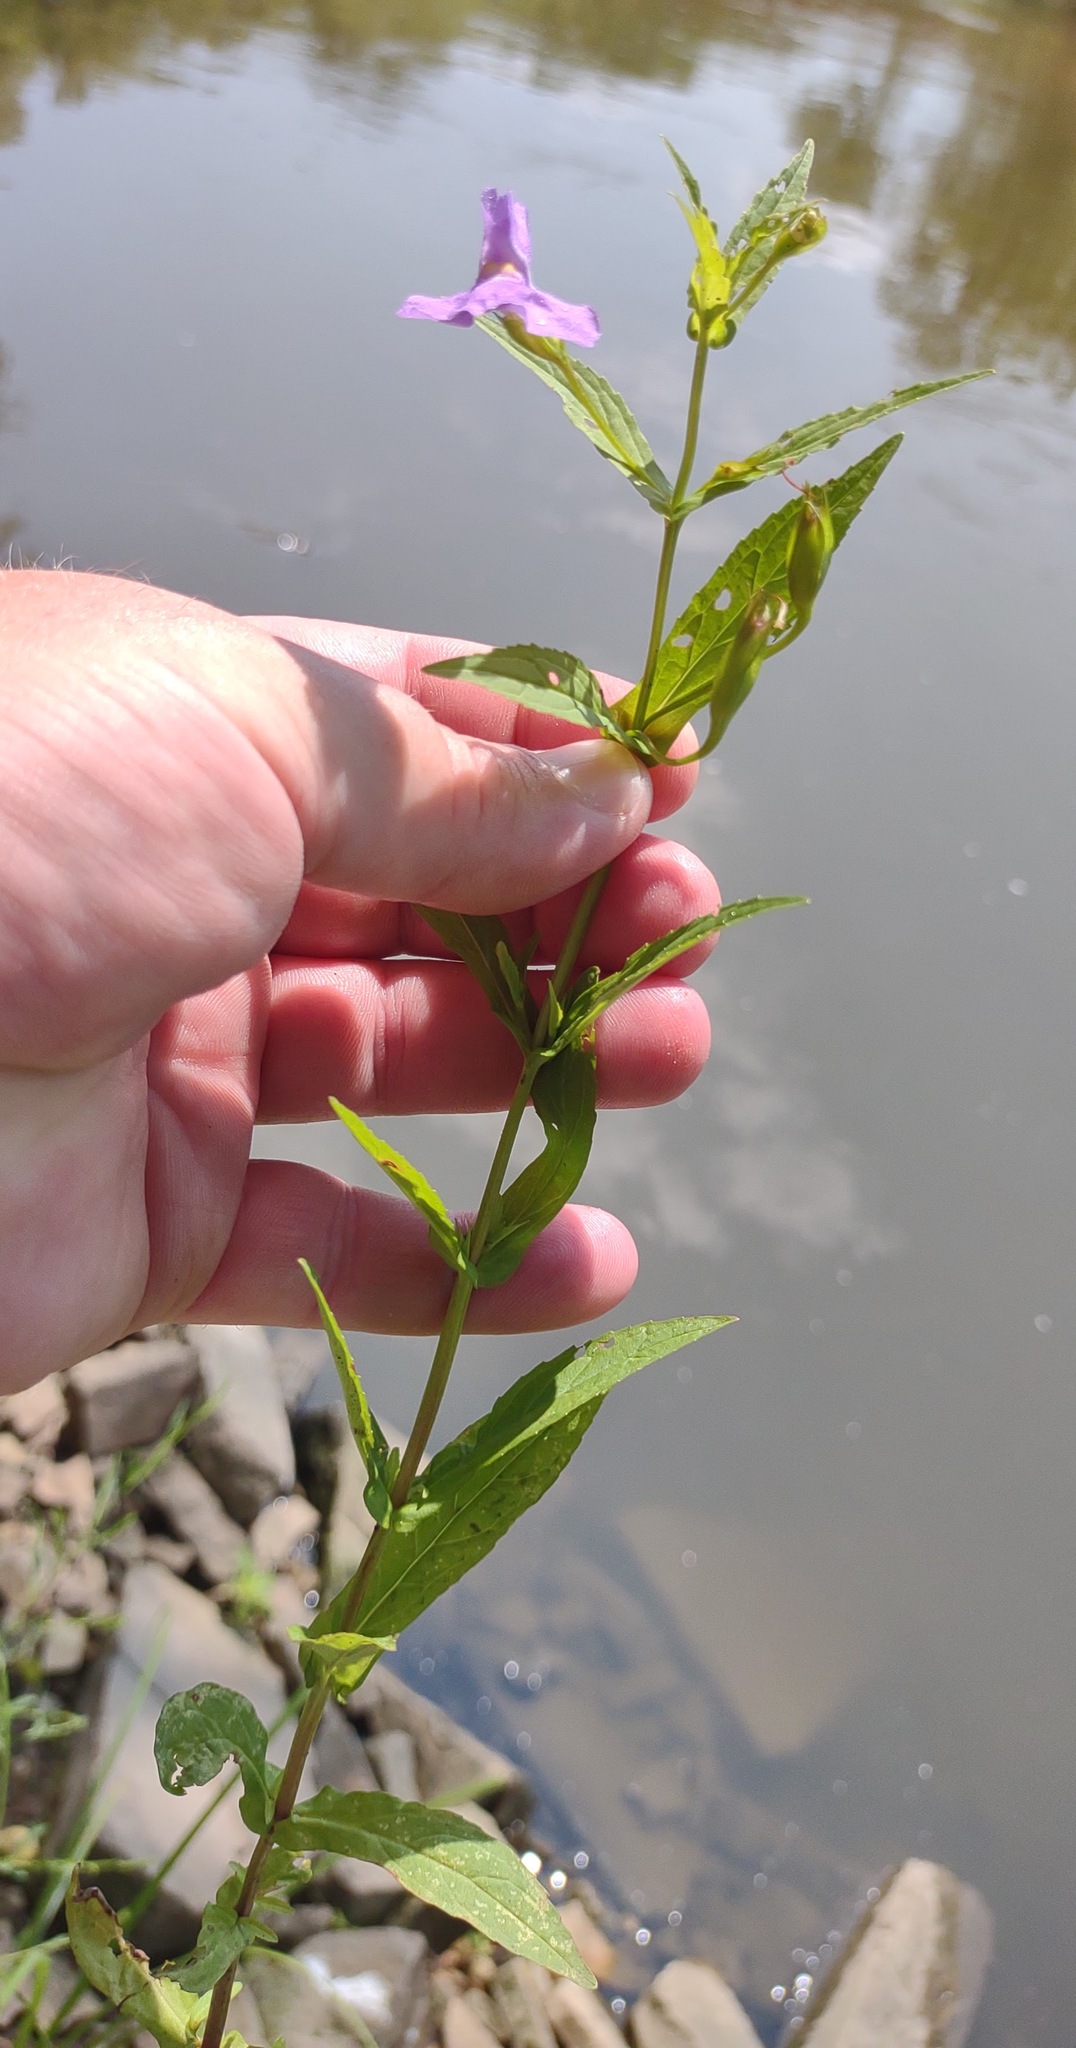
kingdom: Plantae
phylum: Tracheophyta
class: Magnoliopsida
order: Lamiales
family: Phrymaceae
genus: Mimulus
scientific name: Mimulus ringens
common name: Allegheny monkeyflower
